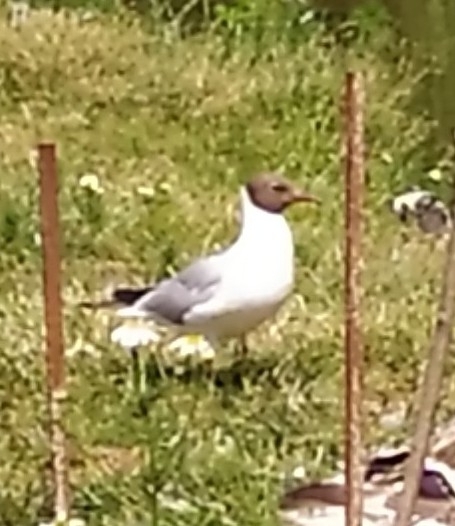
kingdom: Animalia
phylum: Chordata
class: Aves
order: Charadriiformes
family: Laridae
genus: Chroicocephalus
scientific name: Chroicocephalus ridibundus
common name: Black-headed gull
